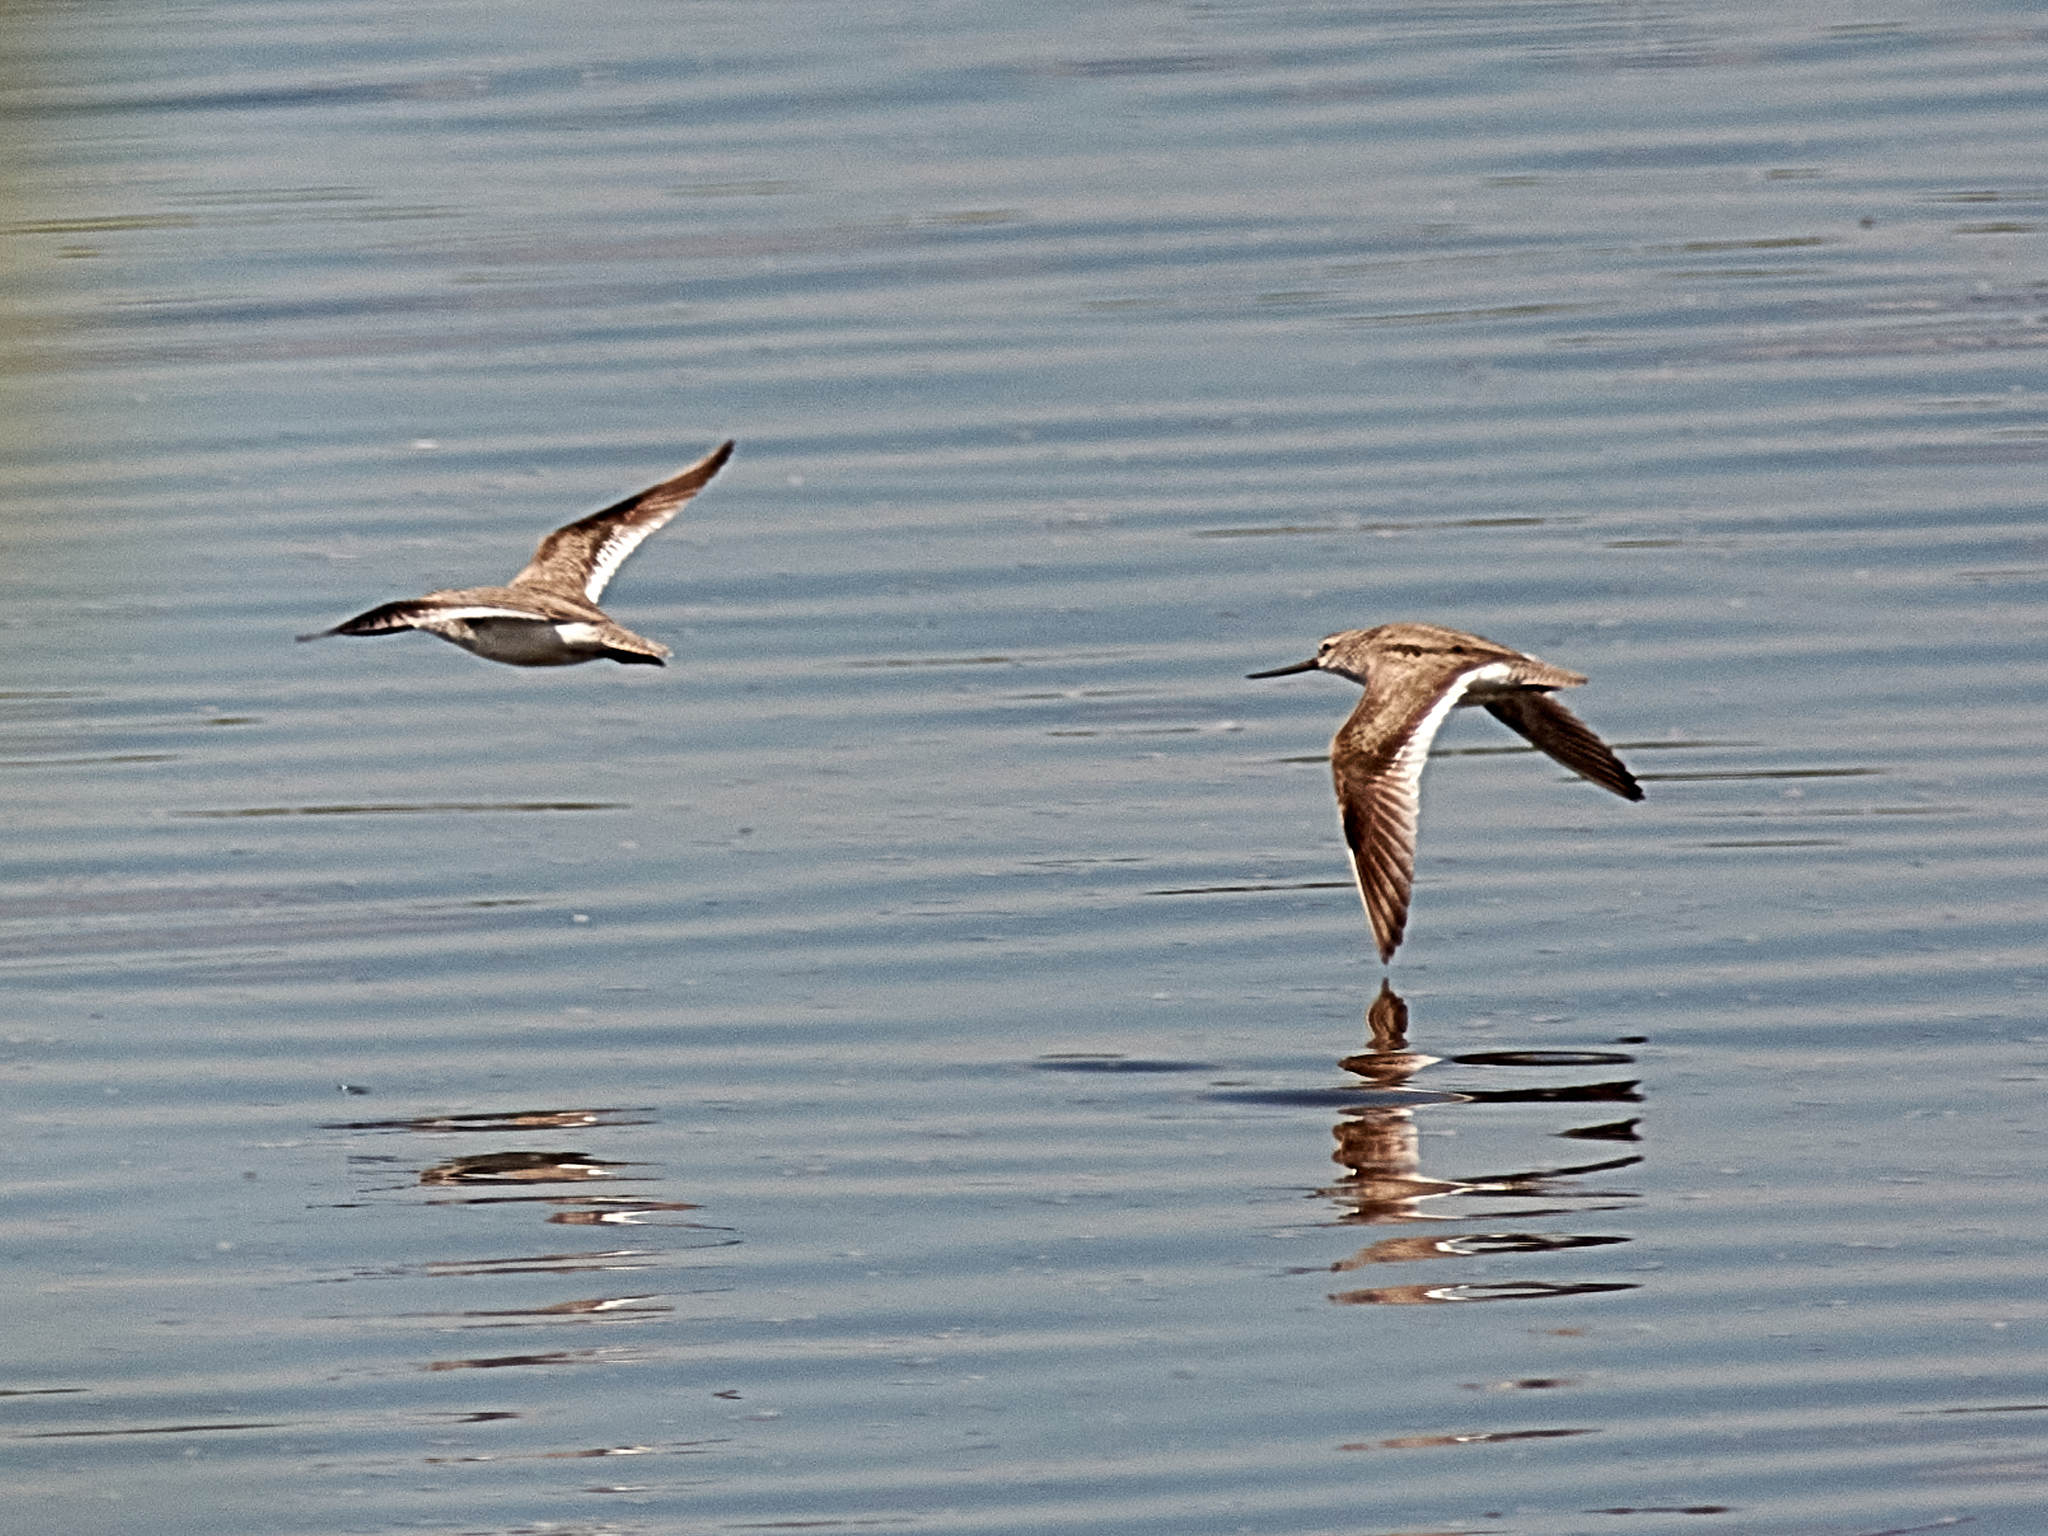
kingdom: Animalia
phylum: Chordata
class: Aves
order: Charadriiformes
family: Scolopacidae
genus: Xenus
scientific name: Xenus cinereus
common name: Terek sandpiper
